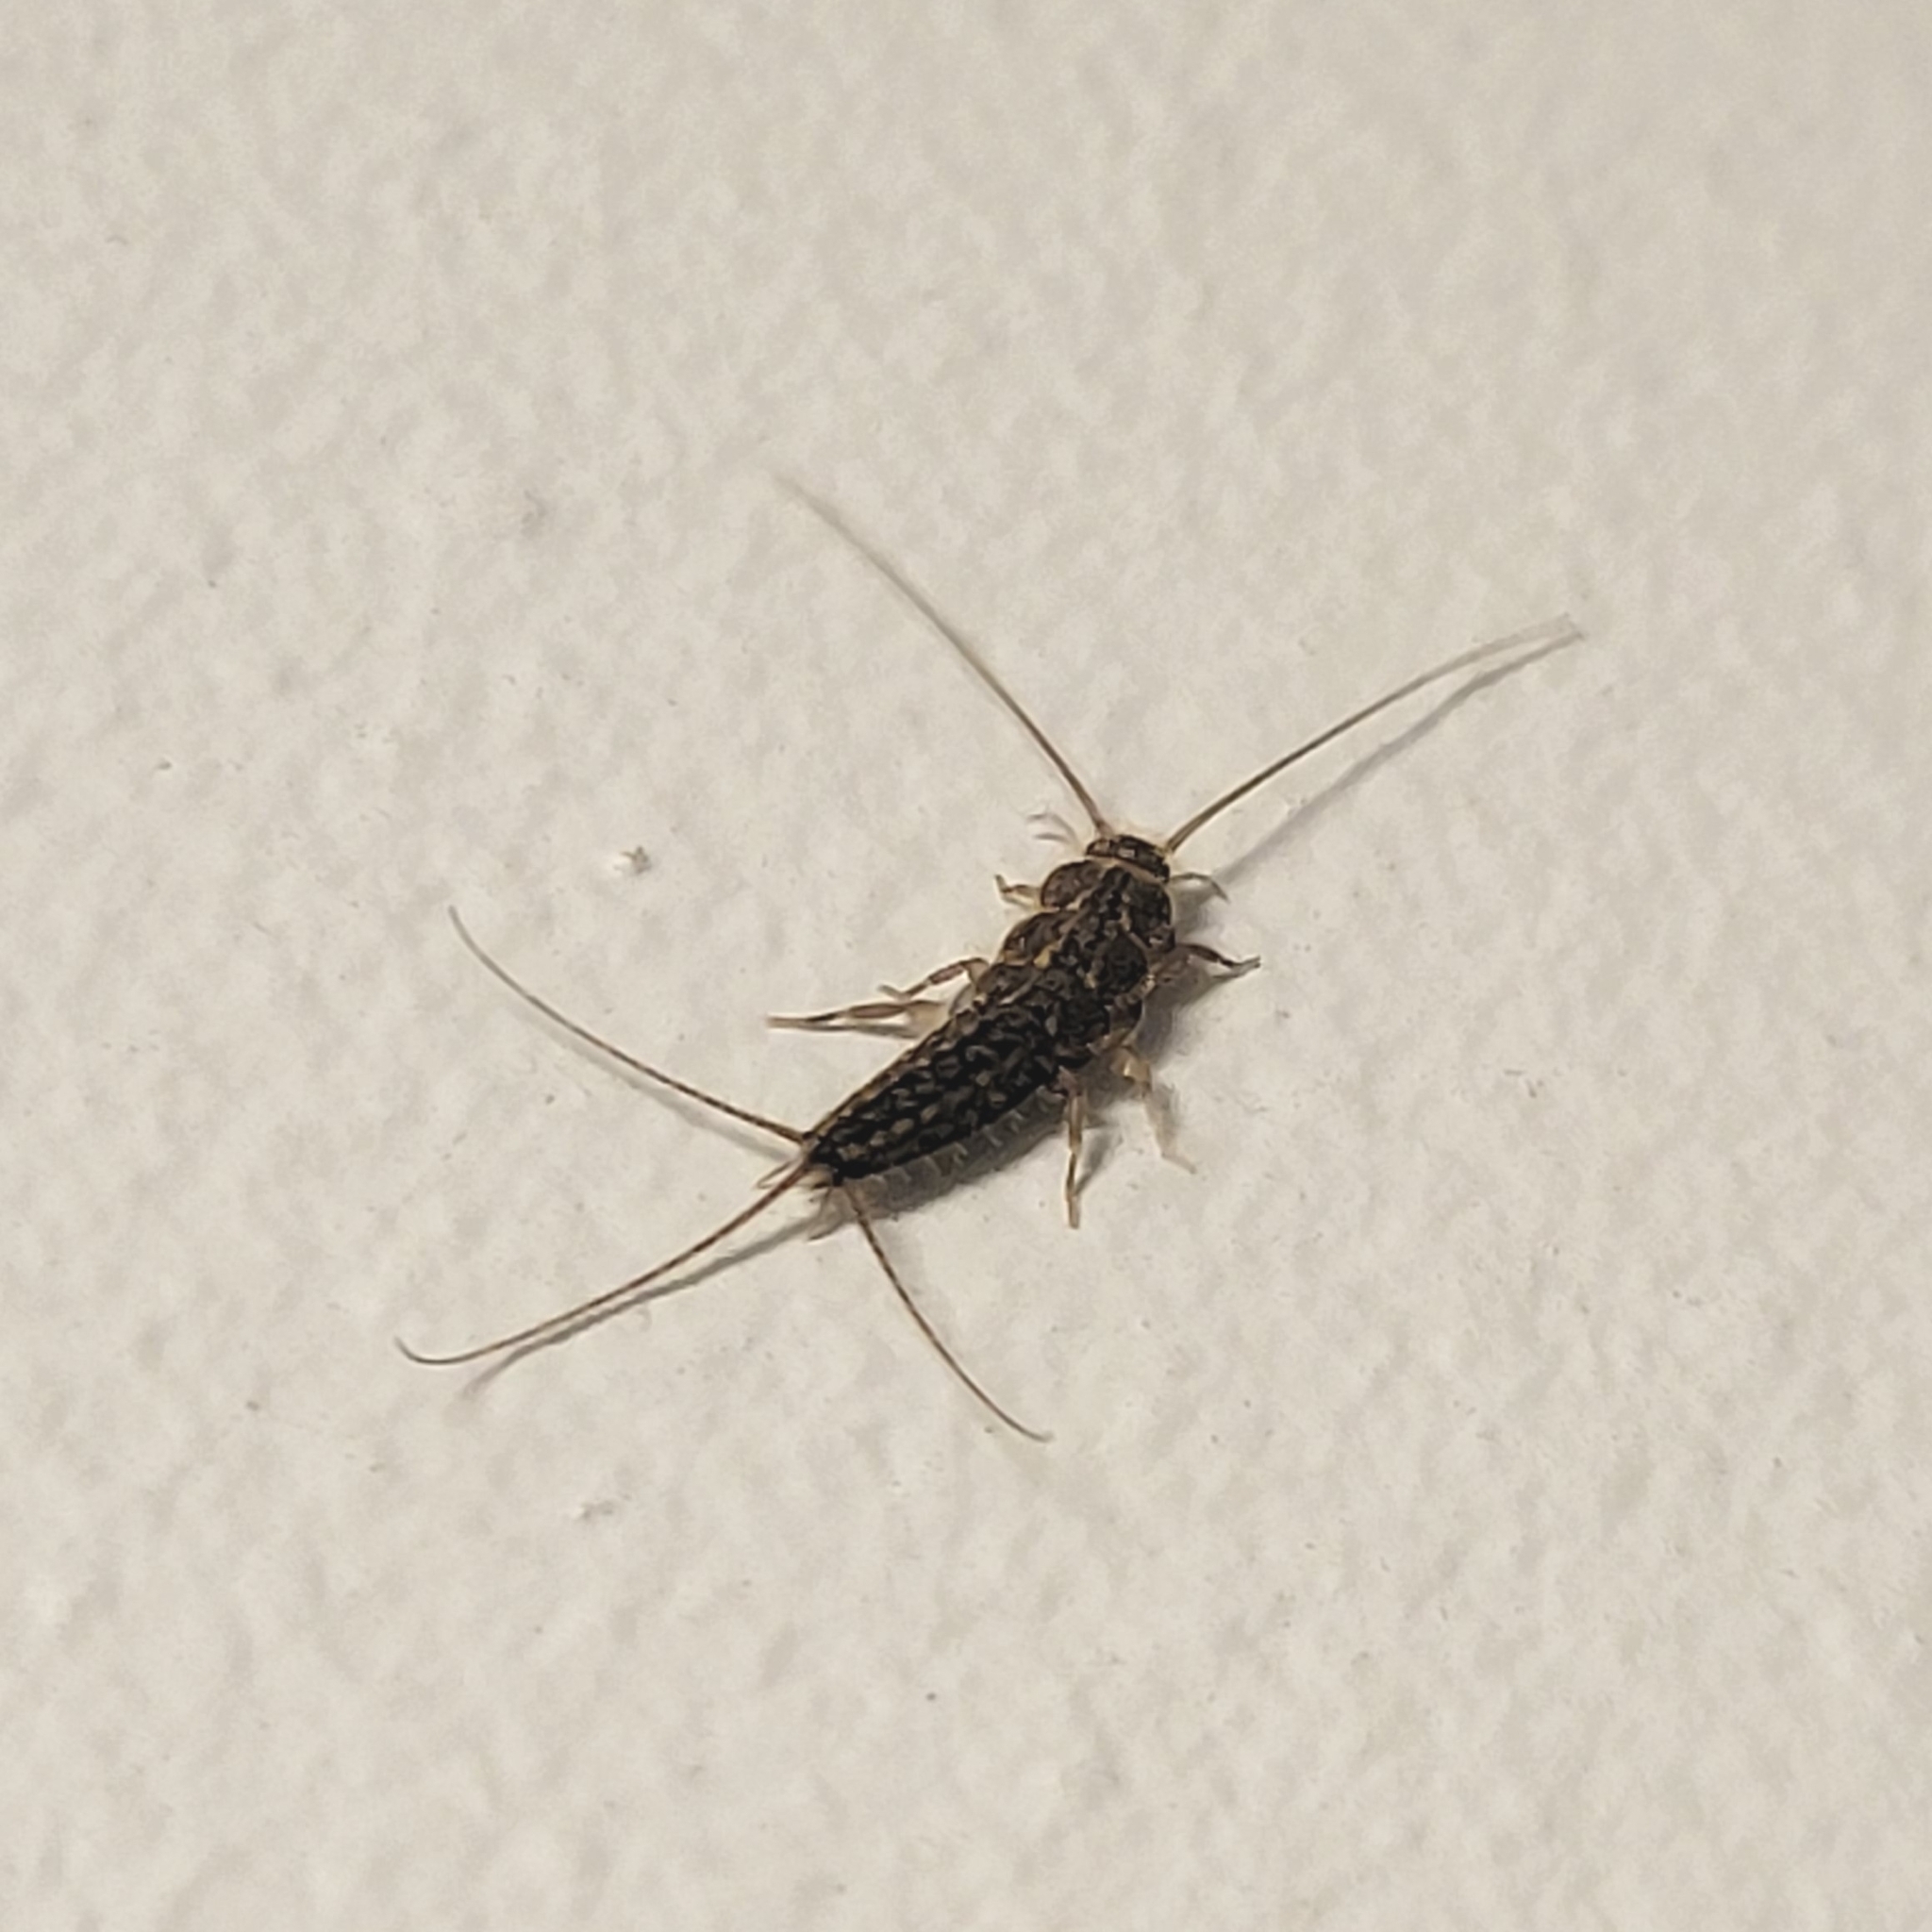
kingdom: Animalia
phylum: Arthropoda
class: Insecta
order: Zygentoma
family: Lepismatidae
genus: Ctenolepisma
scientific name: Ctenolepisma lineata
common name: Four-lined silverfish
